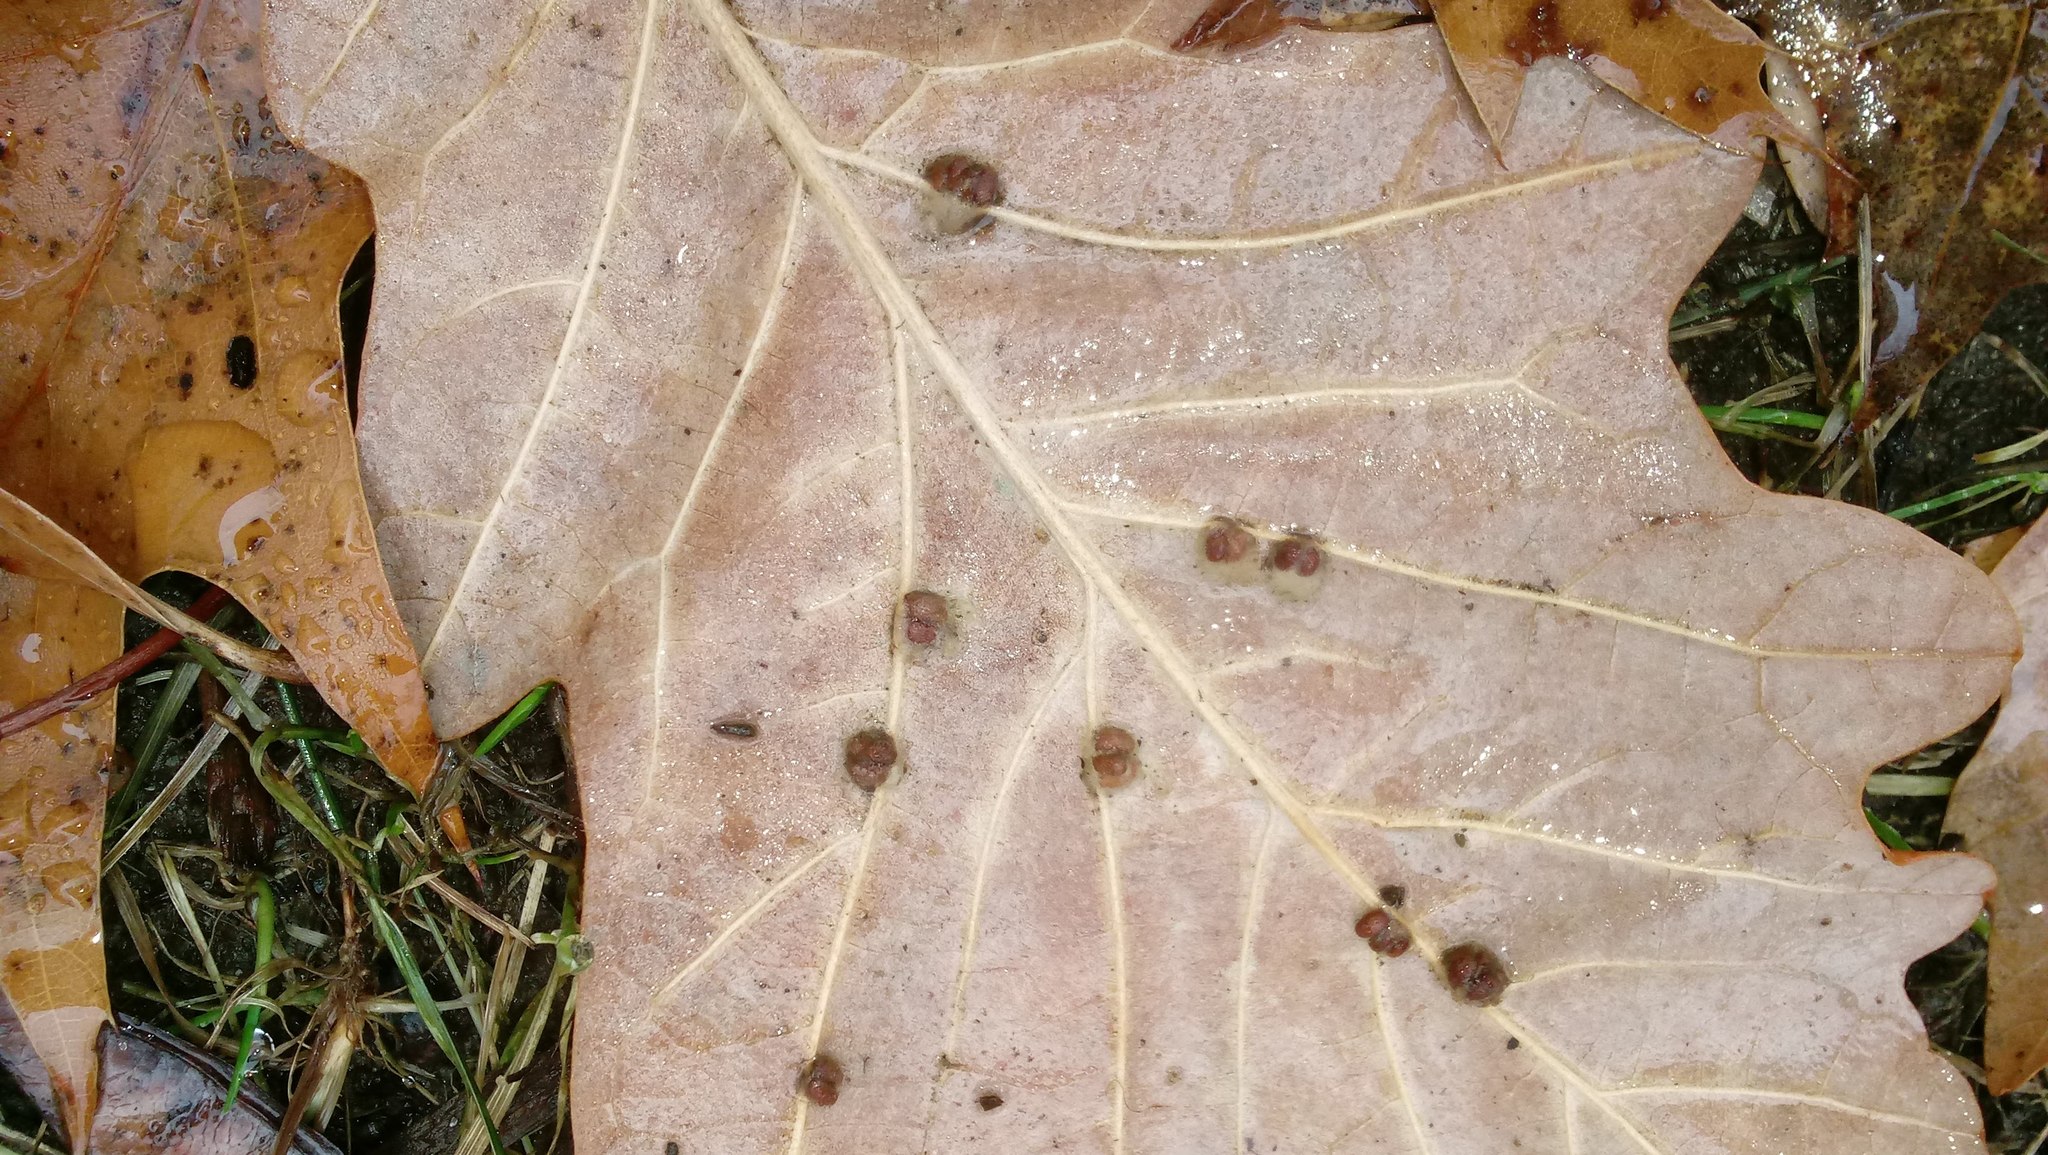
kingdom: Animalia
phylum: Arthropoda
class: Insecta
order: Hymenoptera
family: Cynipidae
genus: Andricus
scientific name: Andricus Druon ignotum
